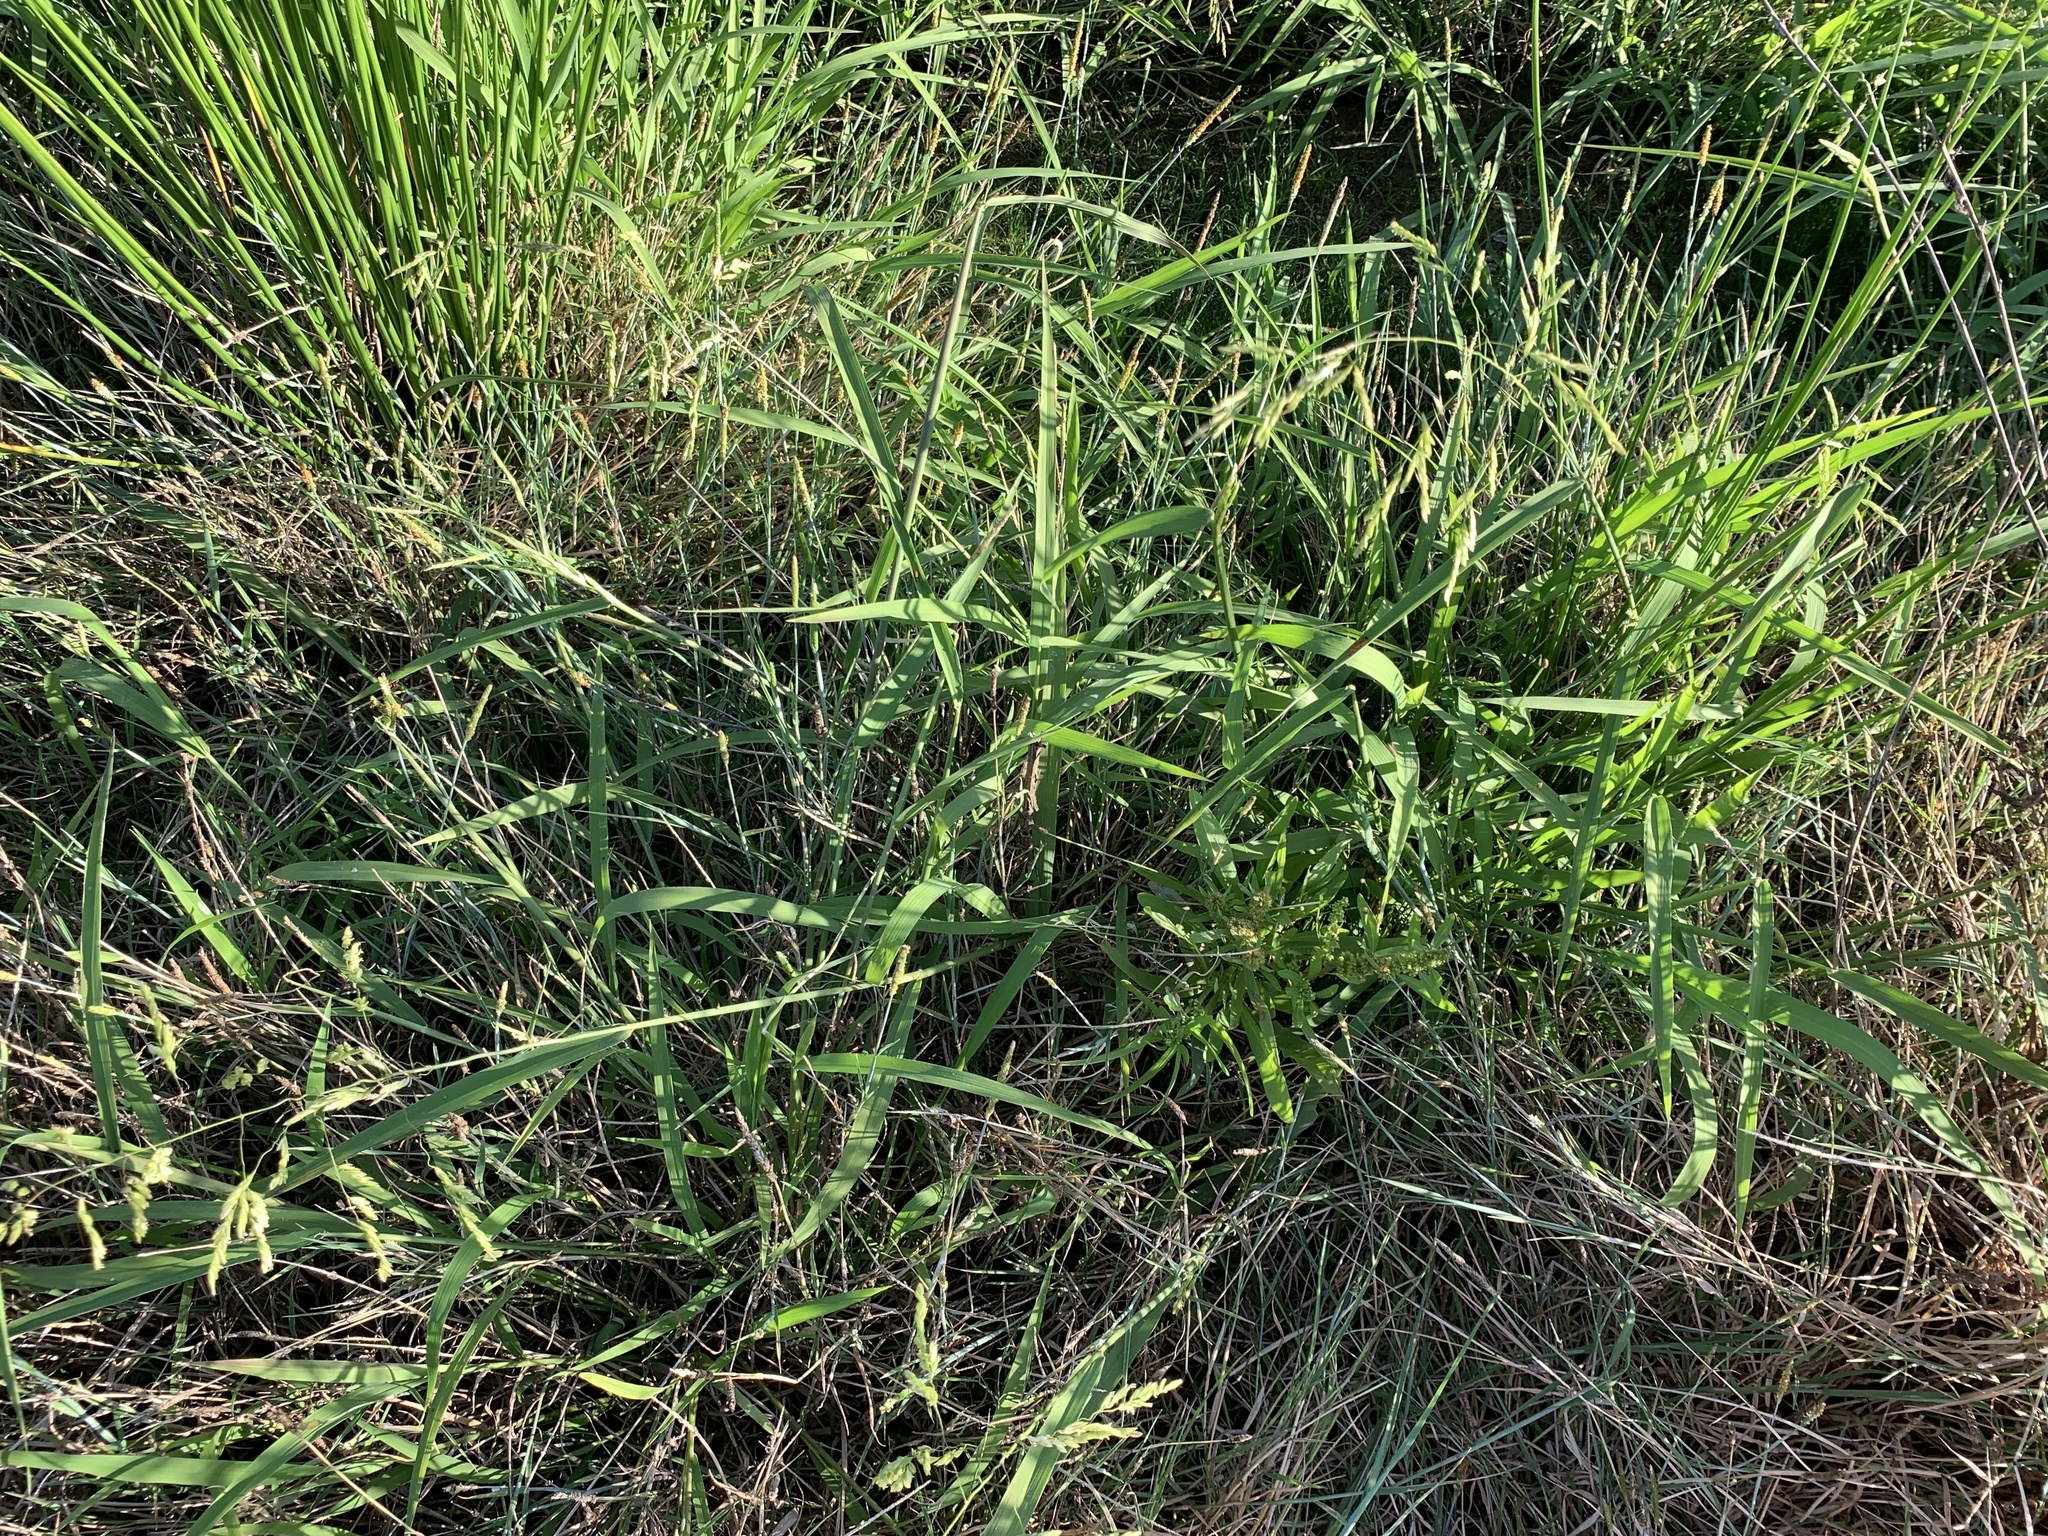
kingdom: Plantae
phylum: Tracheophyta
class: Liliopsida
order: Poales
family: Poaceae
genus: Leersia
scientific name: Leersia oryzoides
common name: Cut-grass
